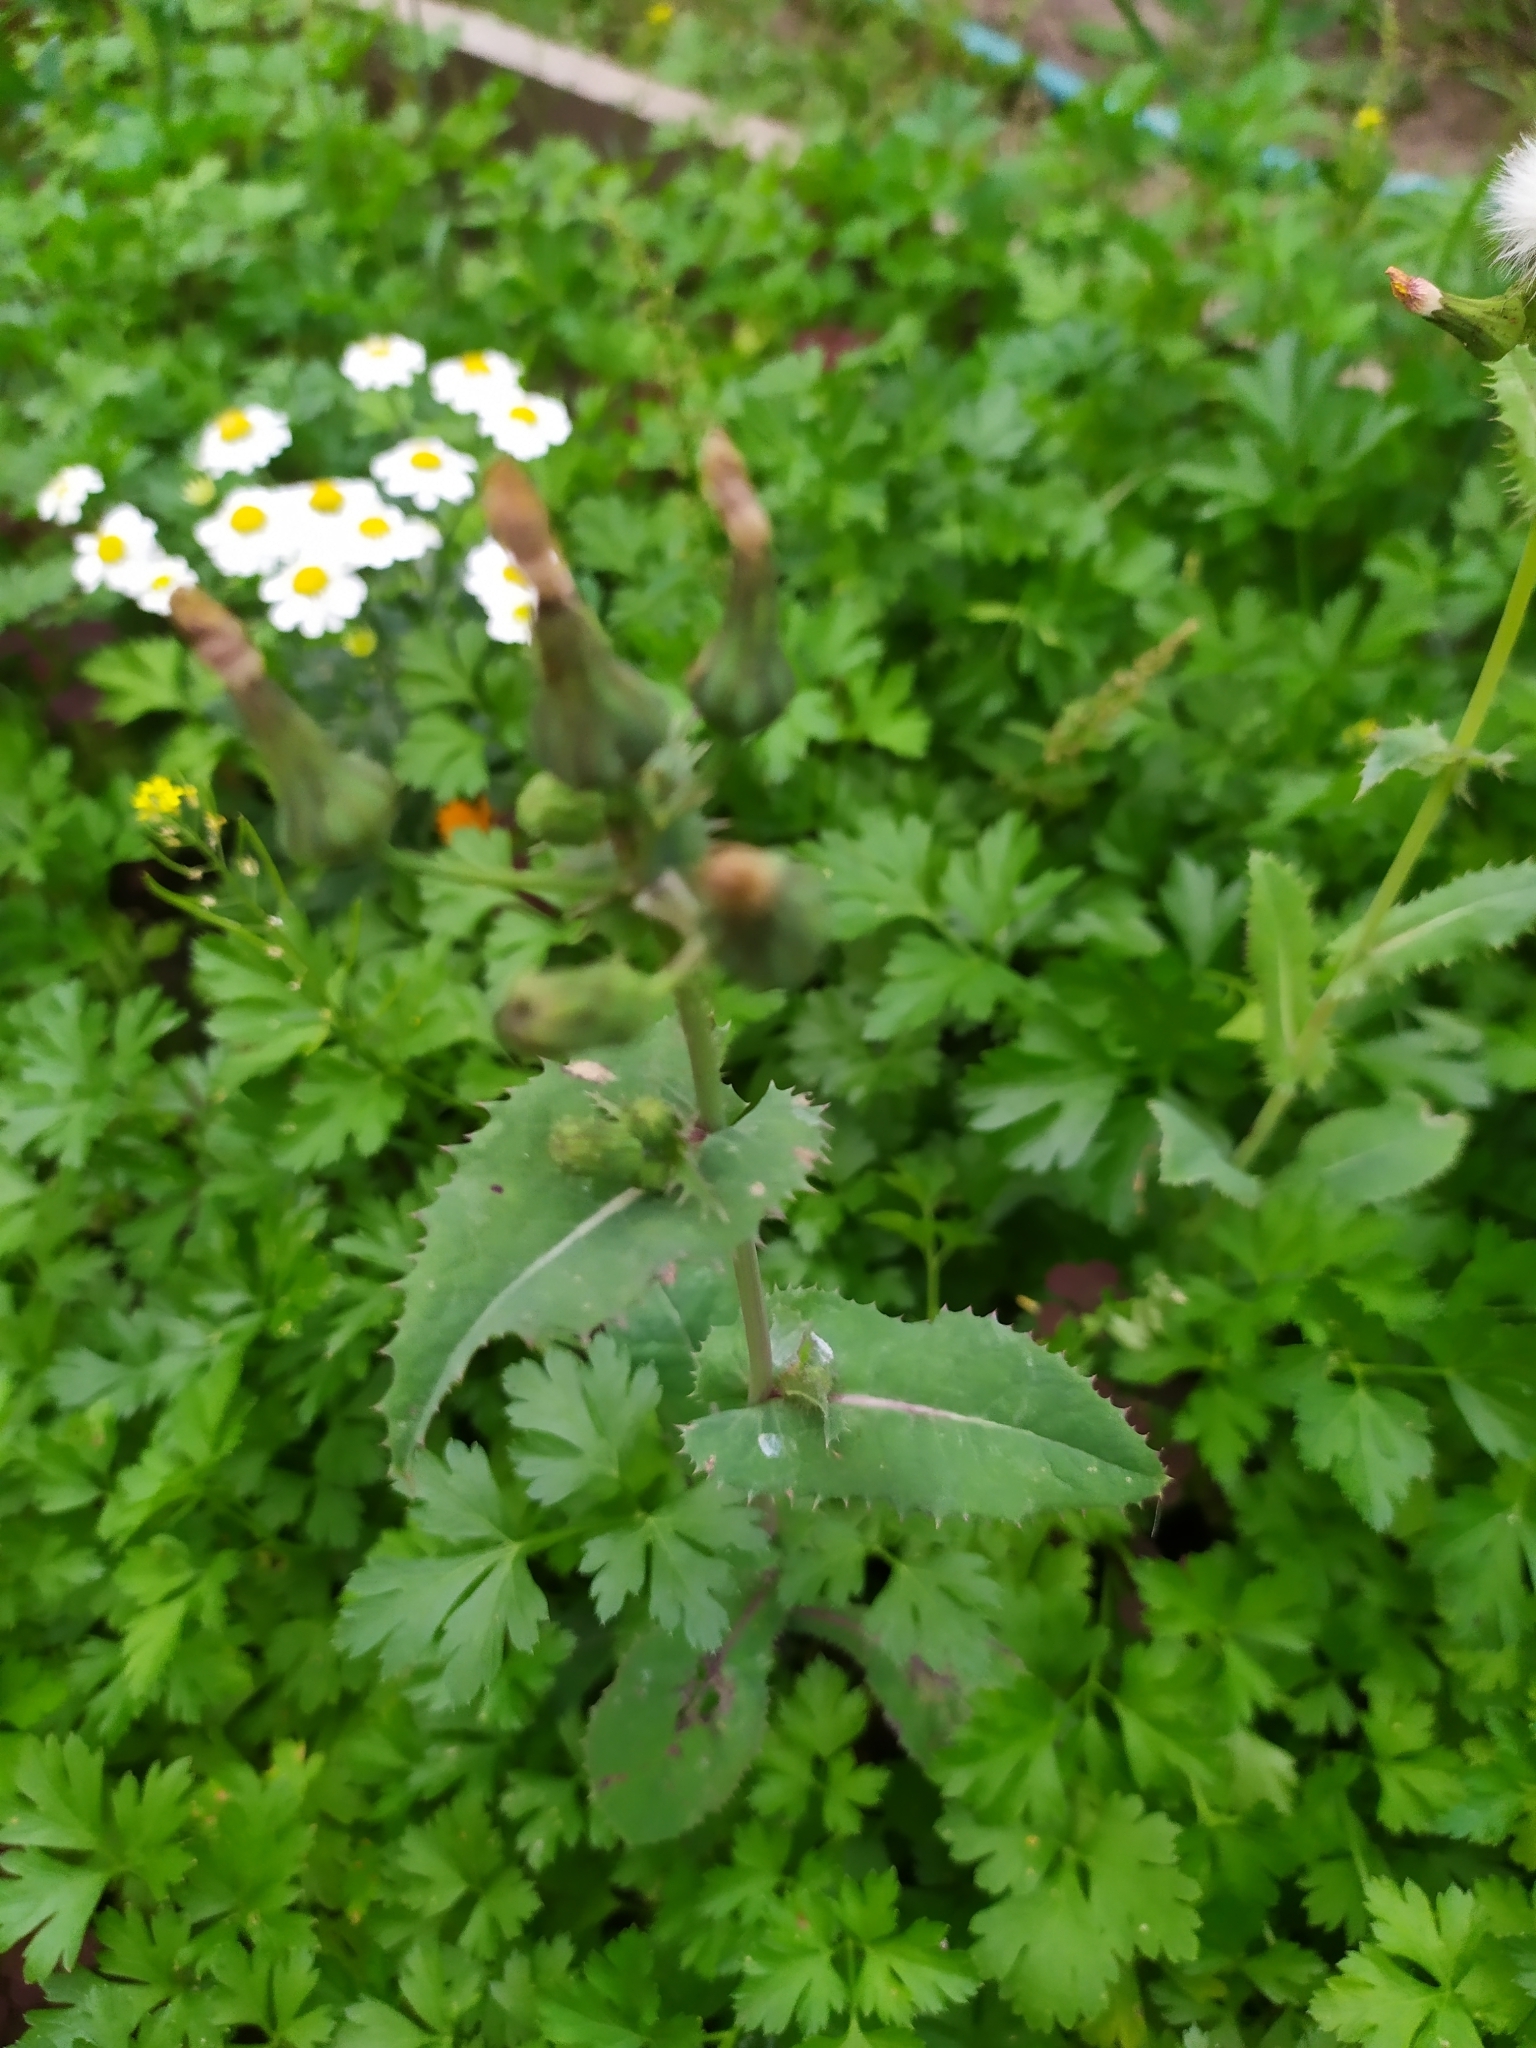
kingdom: Plantae
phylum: Tracheophyta
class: Magnoliopsida
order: Asterales
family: Asteraceae
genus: Sonchus
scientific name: Sonchus oleraceus
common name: Common sowthistle
